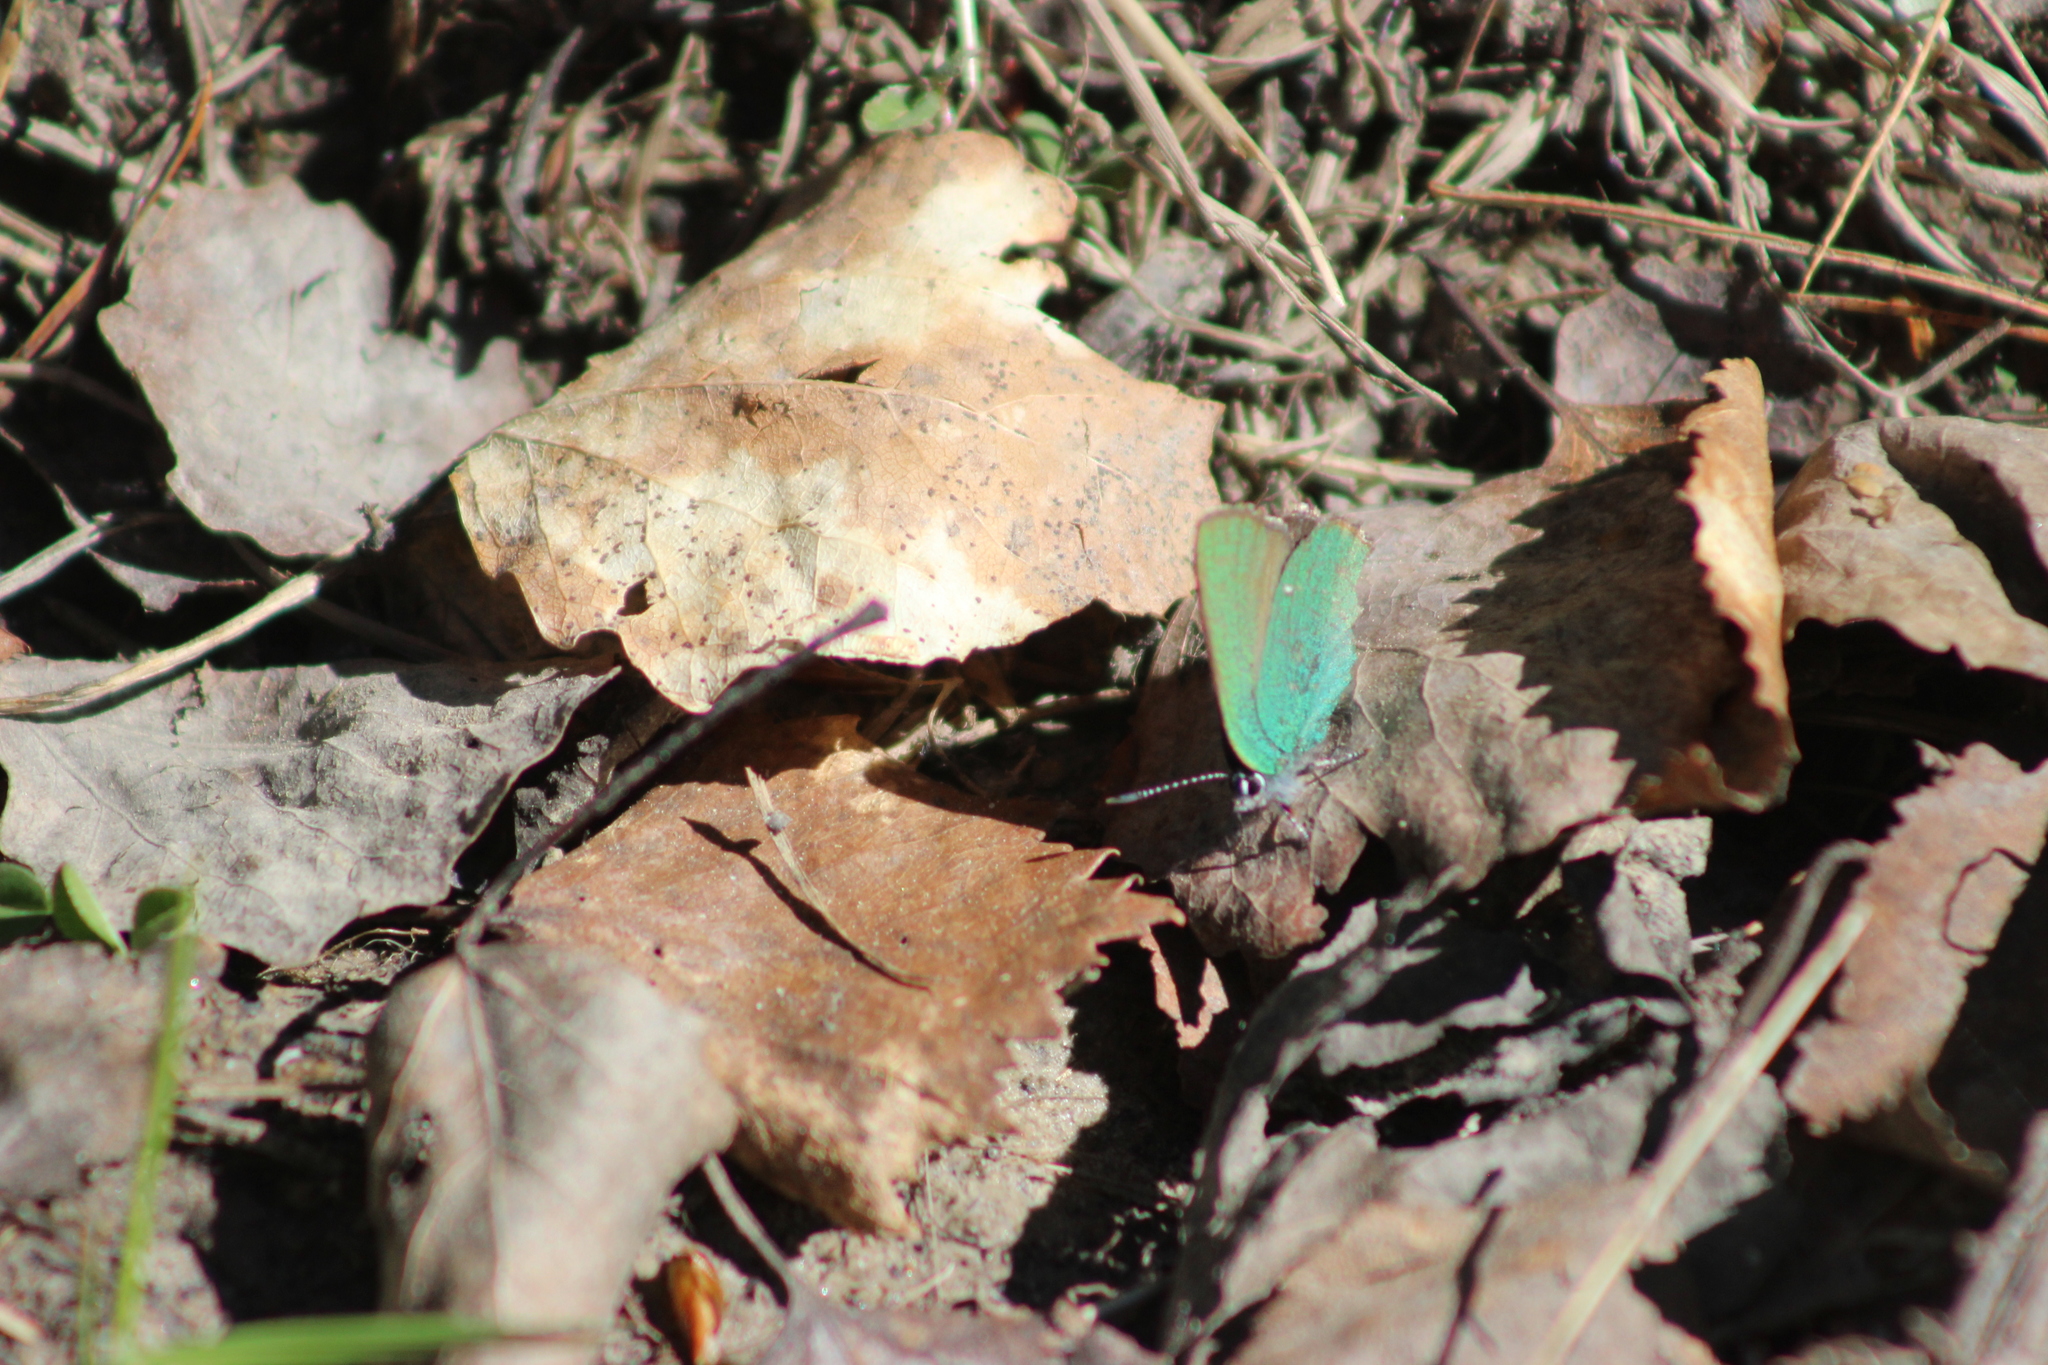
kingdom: Animalia
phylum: Arthropoda
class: Insecta
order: Lepidoptera
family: Lycaenidae
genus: Callophrys
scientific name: Callophrys rubi
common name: Green hairstreak
